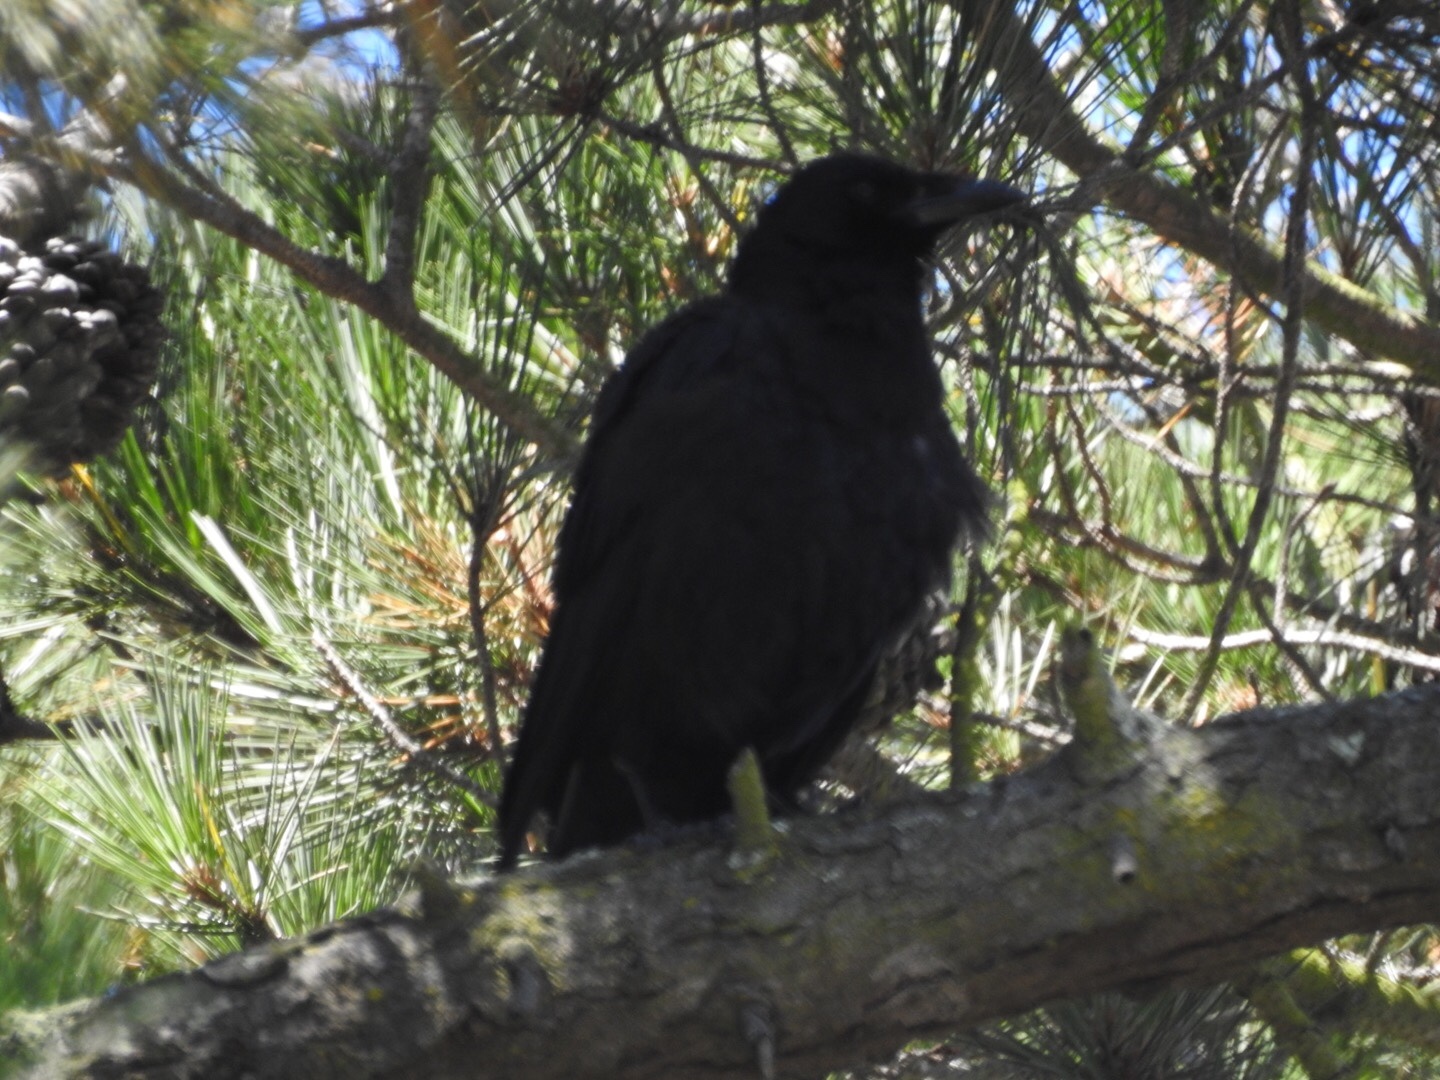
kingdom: Animalia
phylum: Chordata
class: Aves
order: Passeriformes
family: Corvidae
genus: Corvus
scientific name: Corvus corax
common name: Common raven
